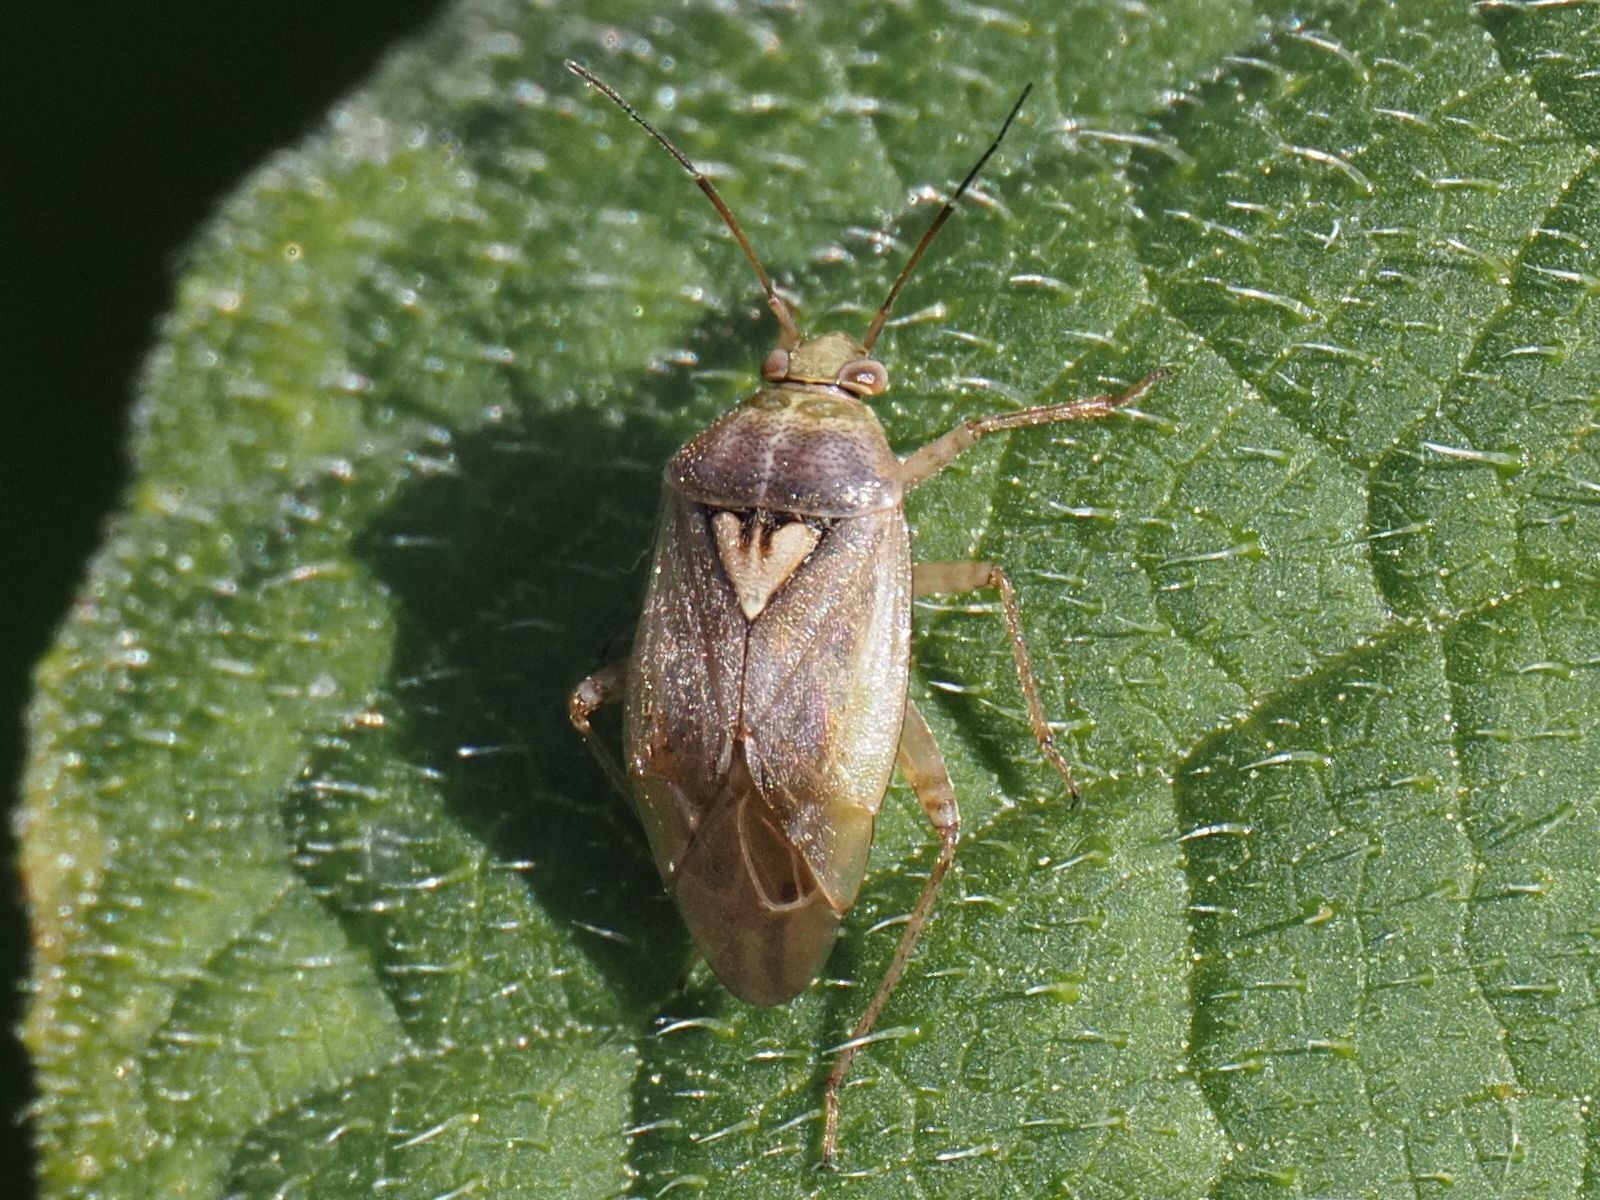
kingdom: Animalia
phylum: Arthropoda
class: Insecta
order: Hemiptera
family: Miridae
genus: Lygus
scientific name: Lygus rugulipennis
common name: European tarnished plant bug
